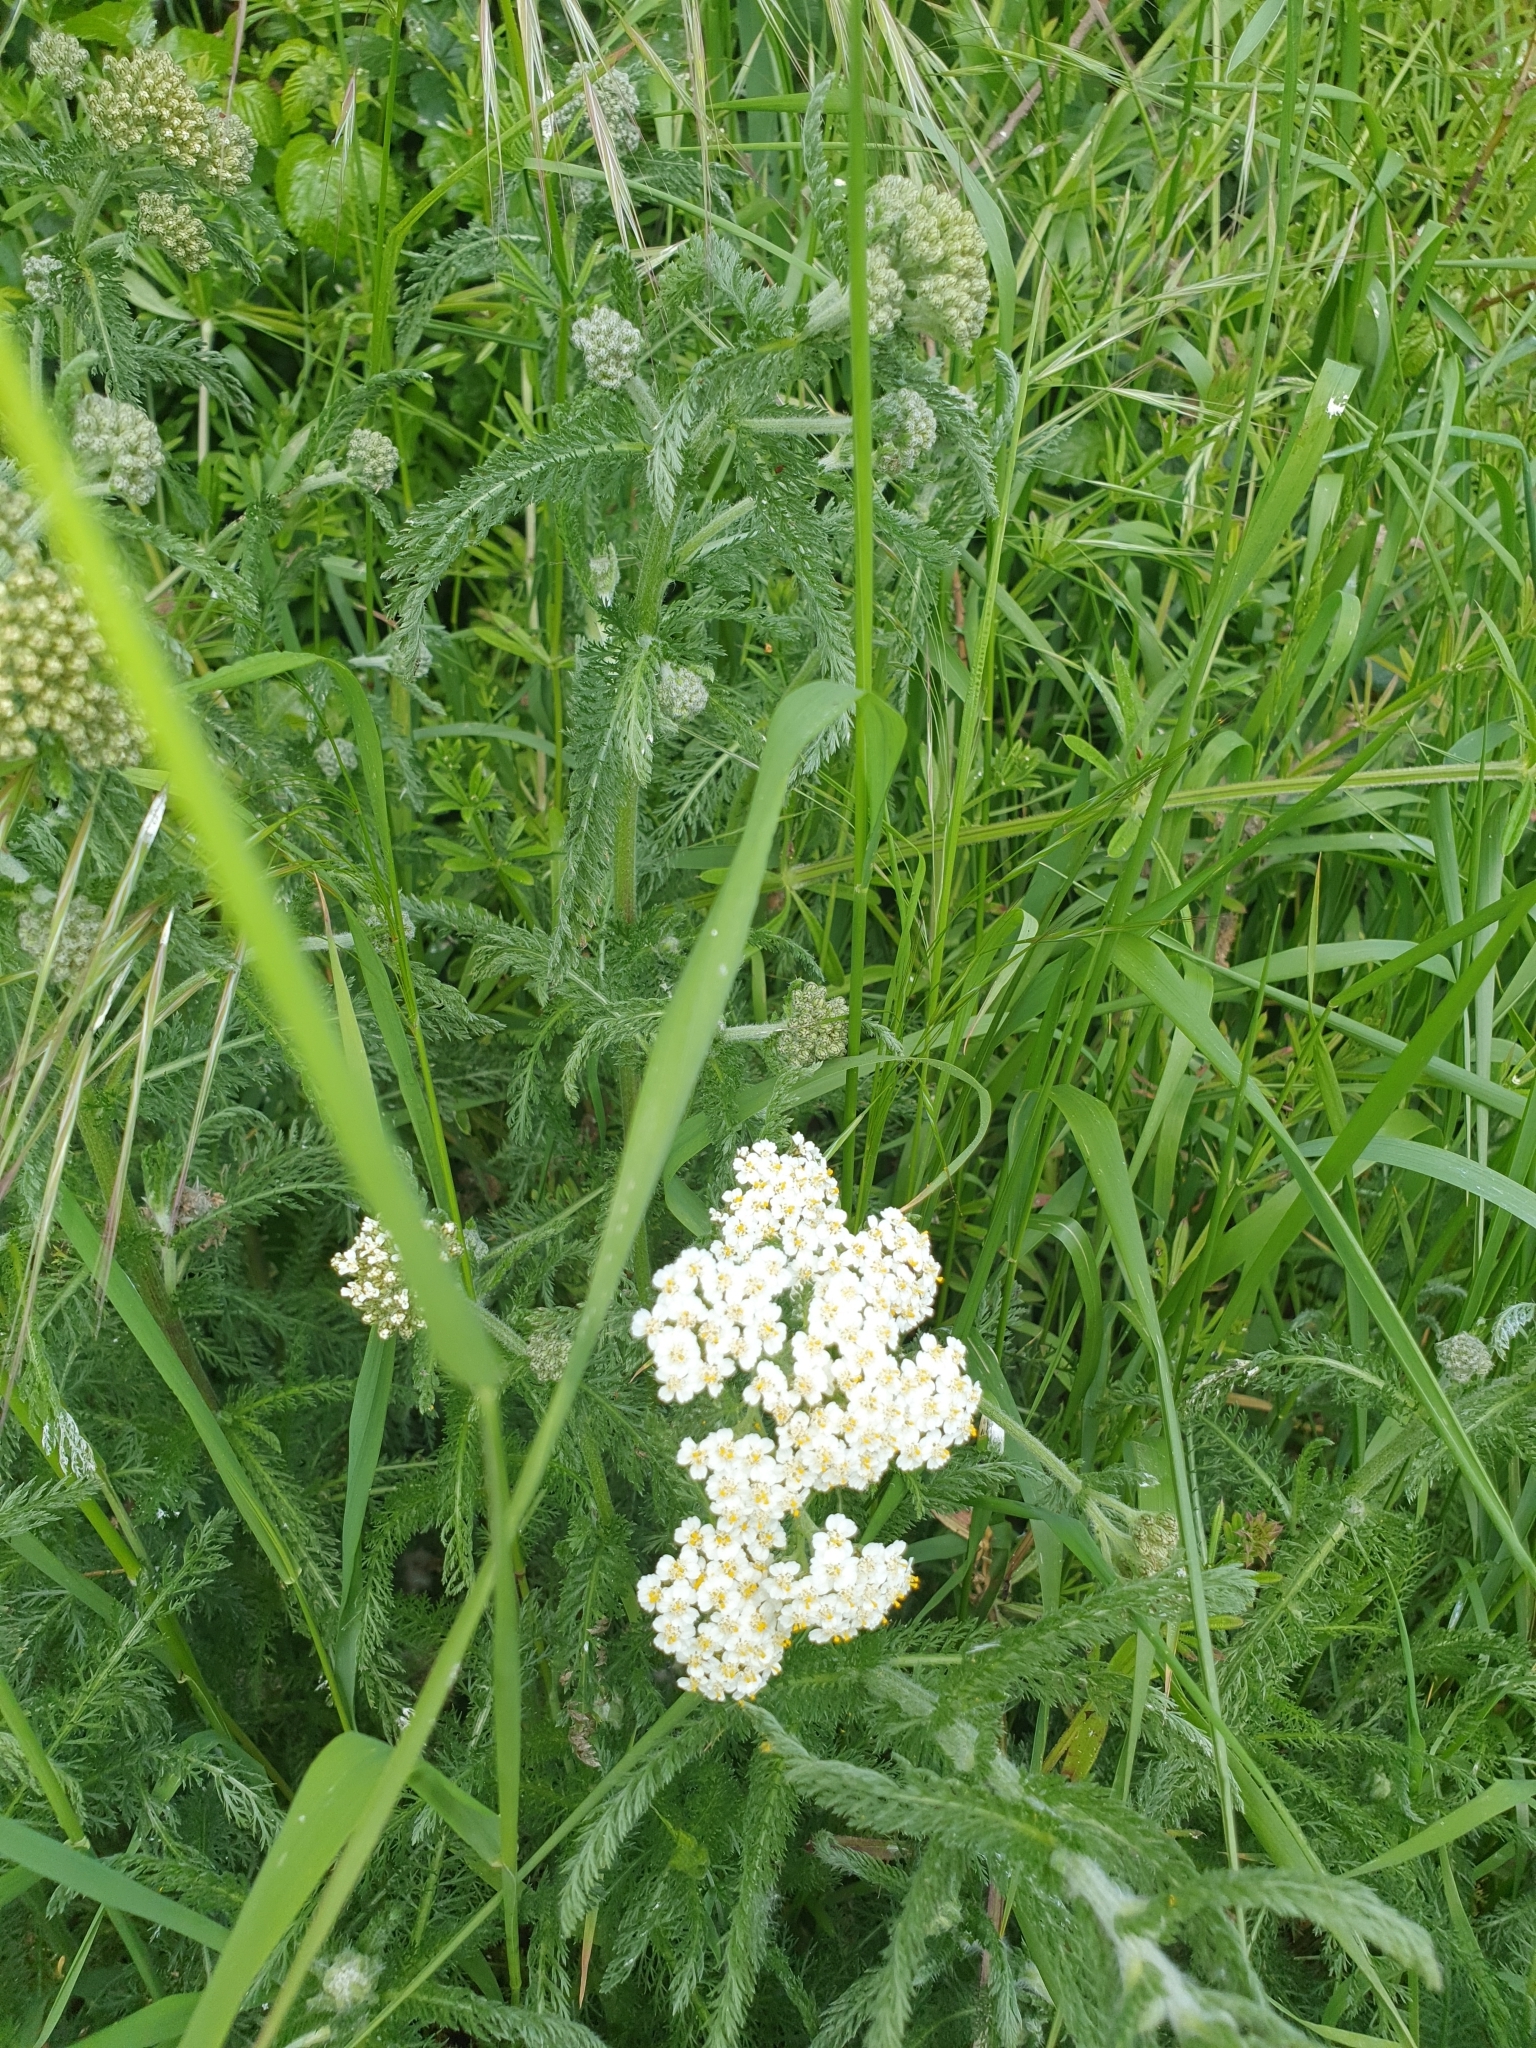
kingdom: Plantae
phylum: Tracheophyta
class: Magnoliopsida
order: Asterales
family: Asteraceae
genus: Achillea
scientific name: Achillea millefolium
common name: Yarrow
